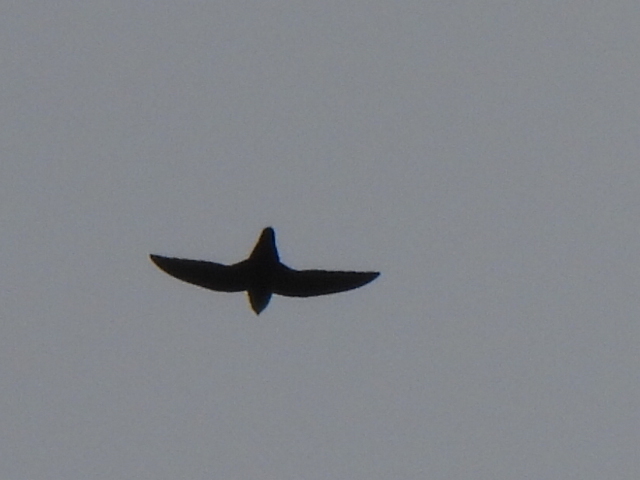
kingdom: Animalia
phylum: Chordata
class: Aves
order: Apodiformes
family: Apodidae
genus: Chaetura
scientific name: Chaetura pelagica
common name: Chimney swift
